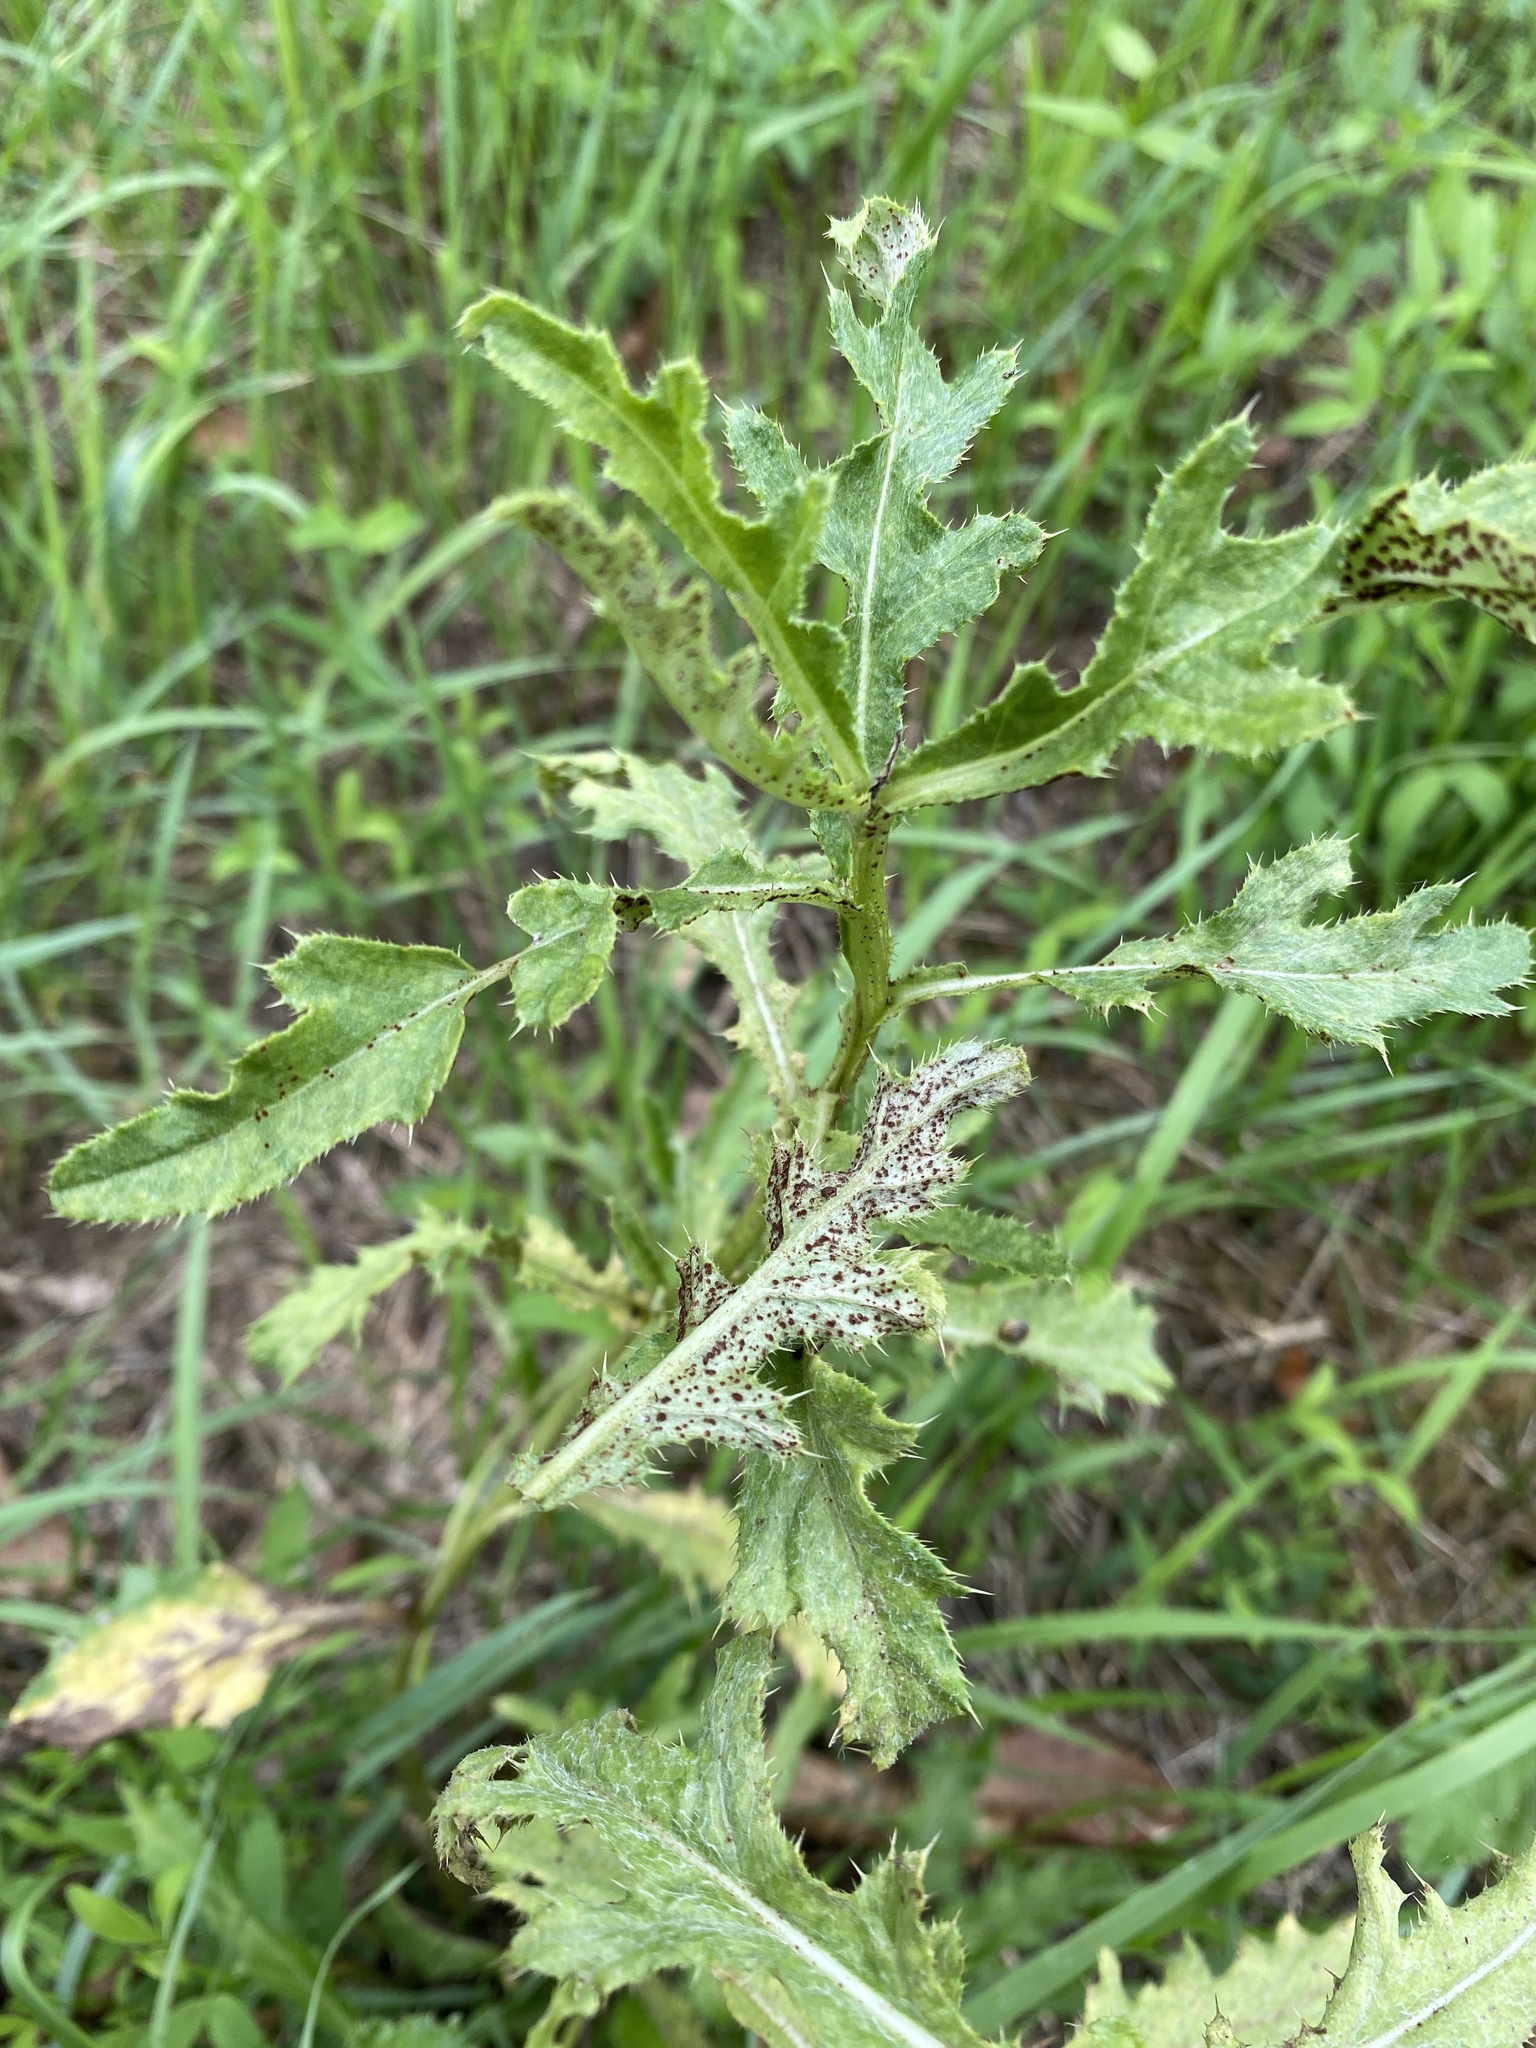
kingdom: Fungi
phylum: Basidiomycota
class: Pucciniomycetes
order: Pucciniales
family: Pucciniaceae
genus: Puccinia
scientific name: Puccinia suaveolens
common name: Thistle rust
